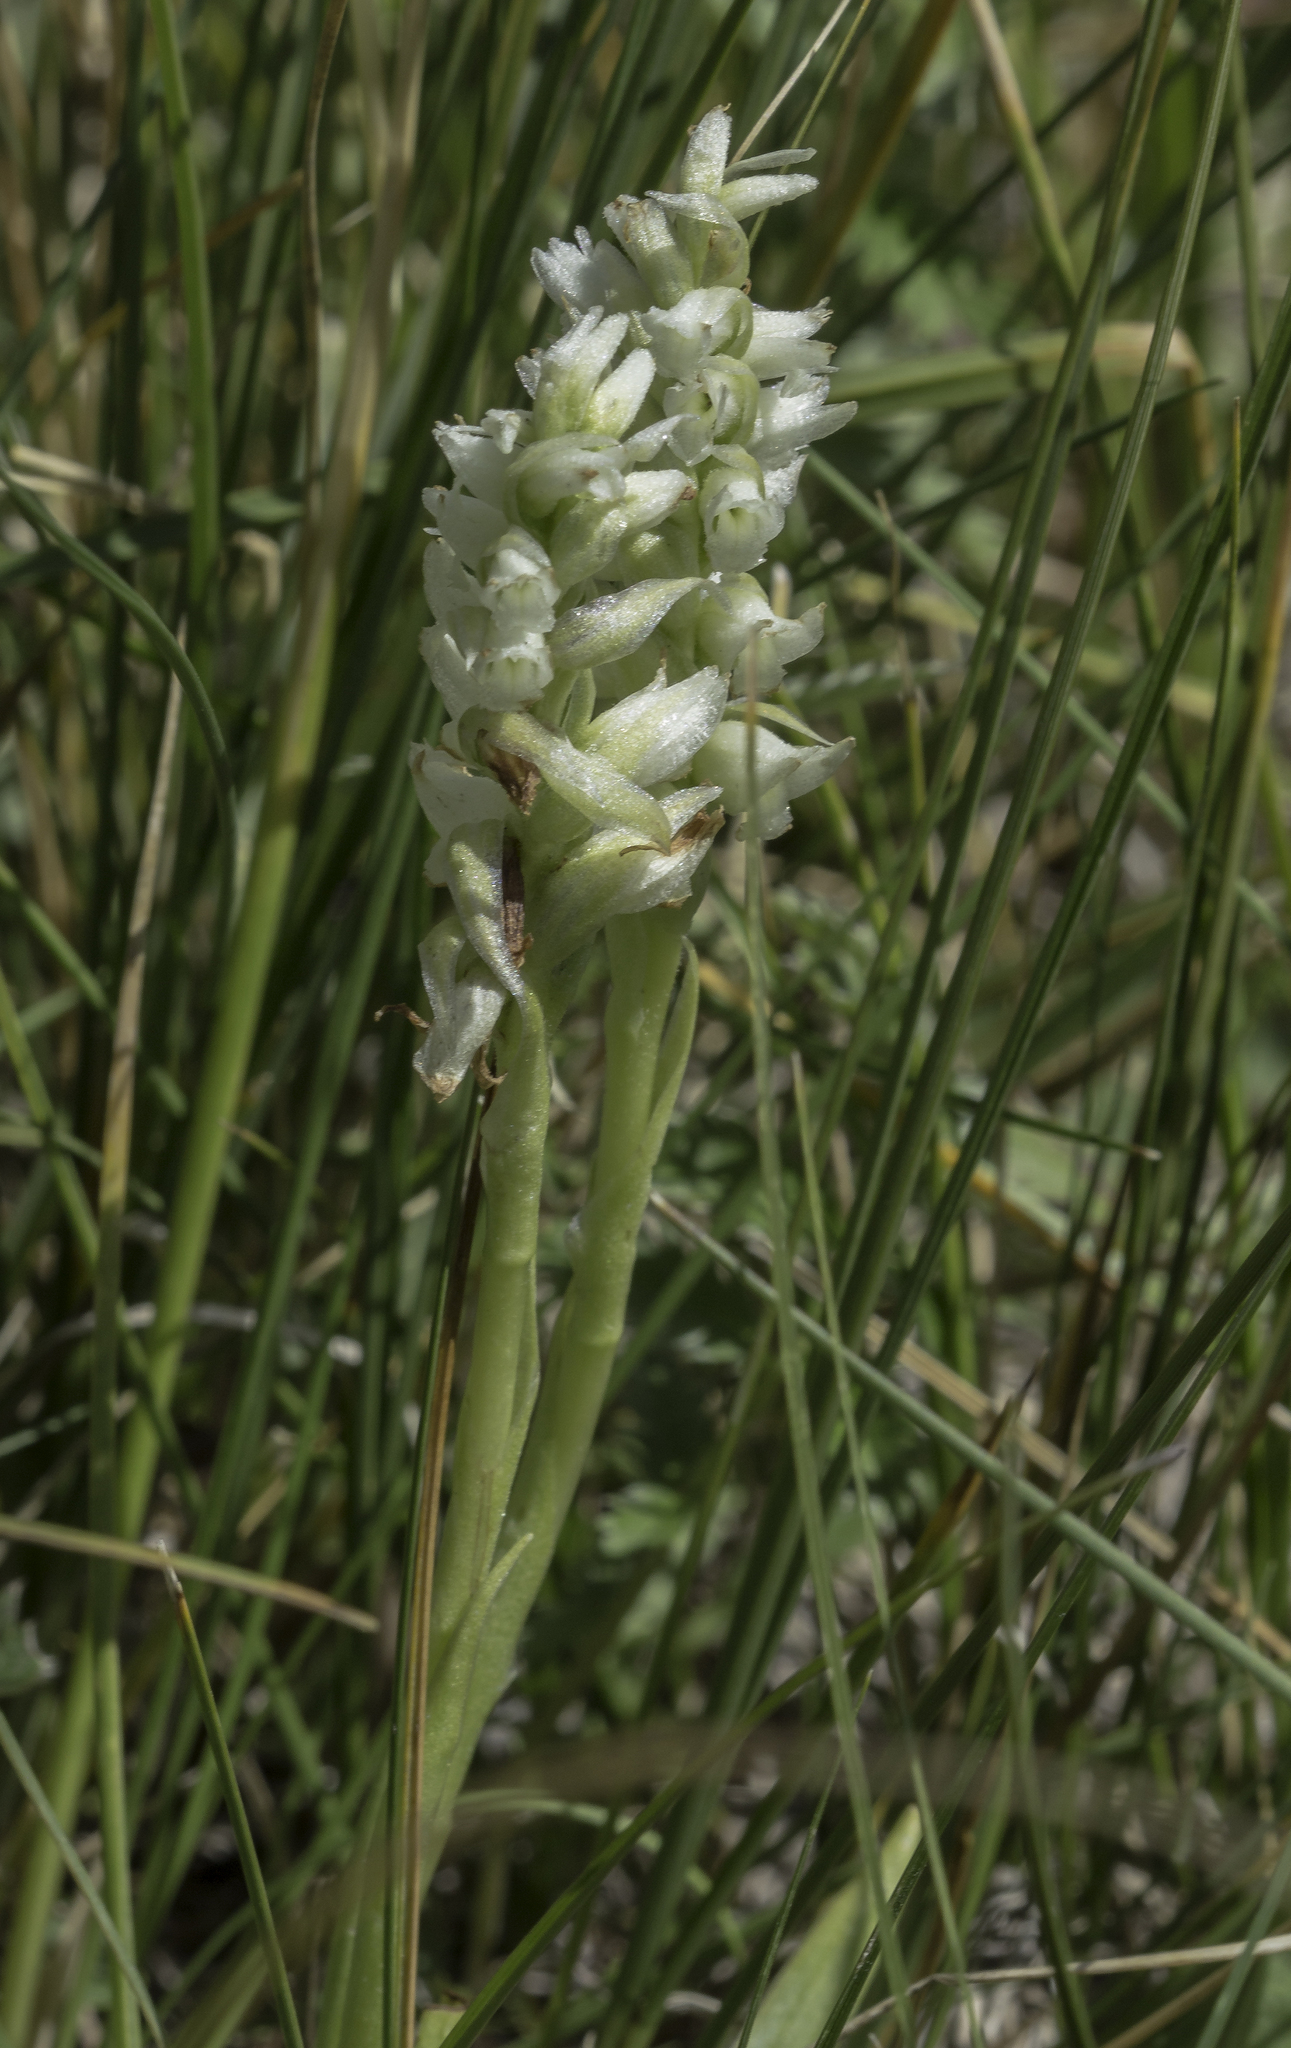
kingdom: Plantae
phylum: Tracheophyta
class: Liliopsida
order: Asparagales
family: Orchidaceae
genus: Spiranthes
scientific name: Spiranthes romanzoffiana
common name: Irish lady's-tresses
